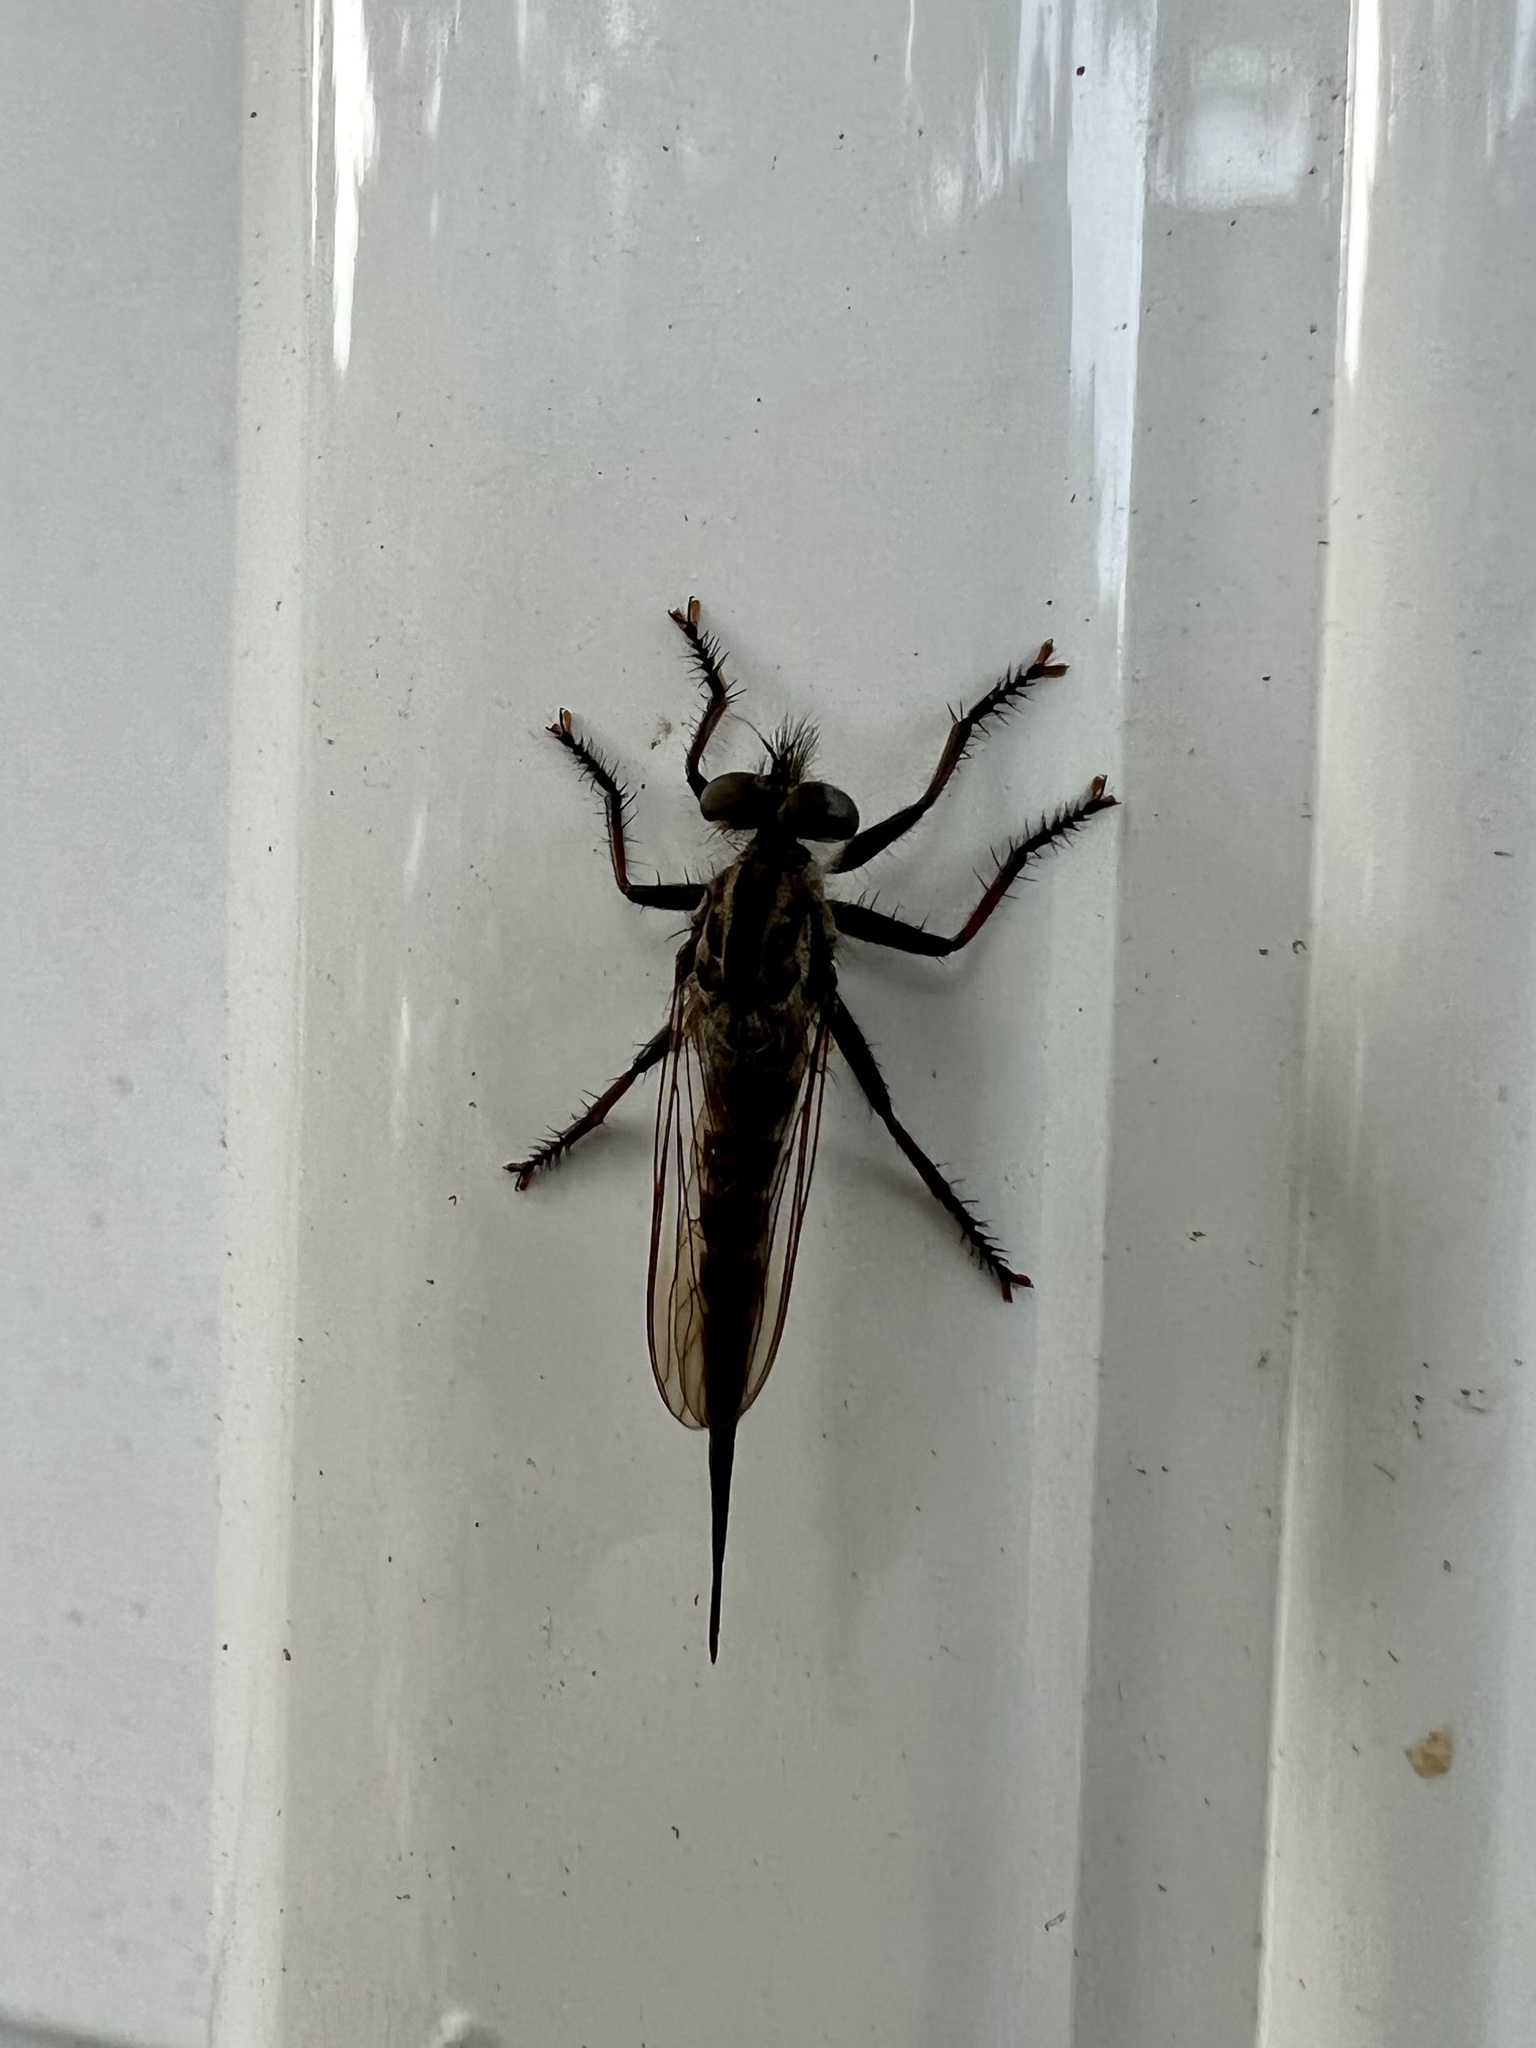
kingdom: Animalia
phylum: Arthropoda
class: Insecta
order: Diptera
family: Asilidae
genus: Efferia
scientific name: Efferia aestuans
